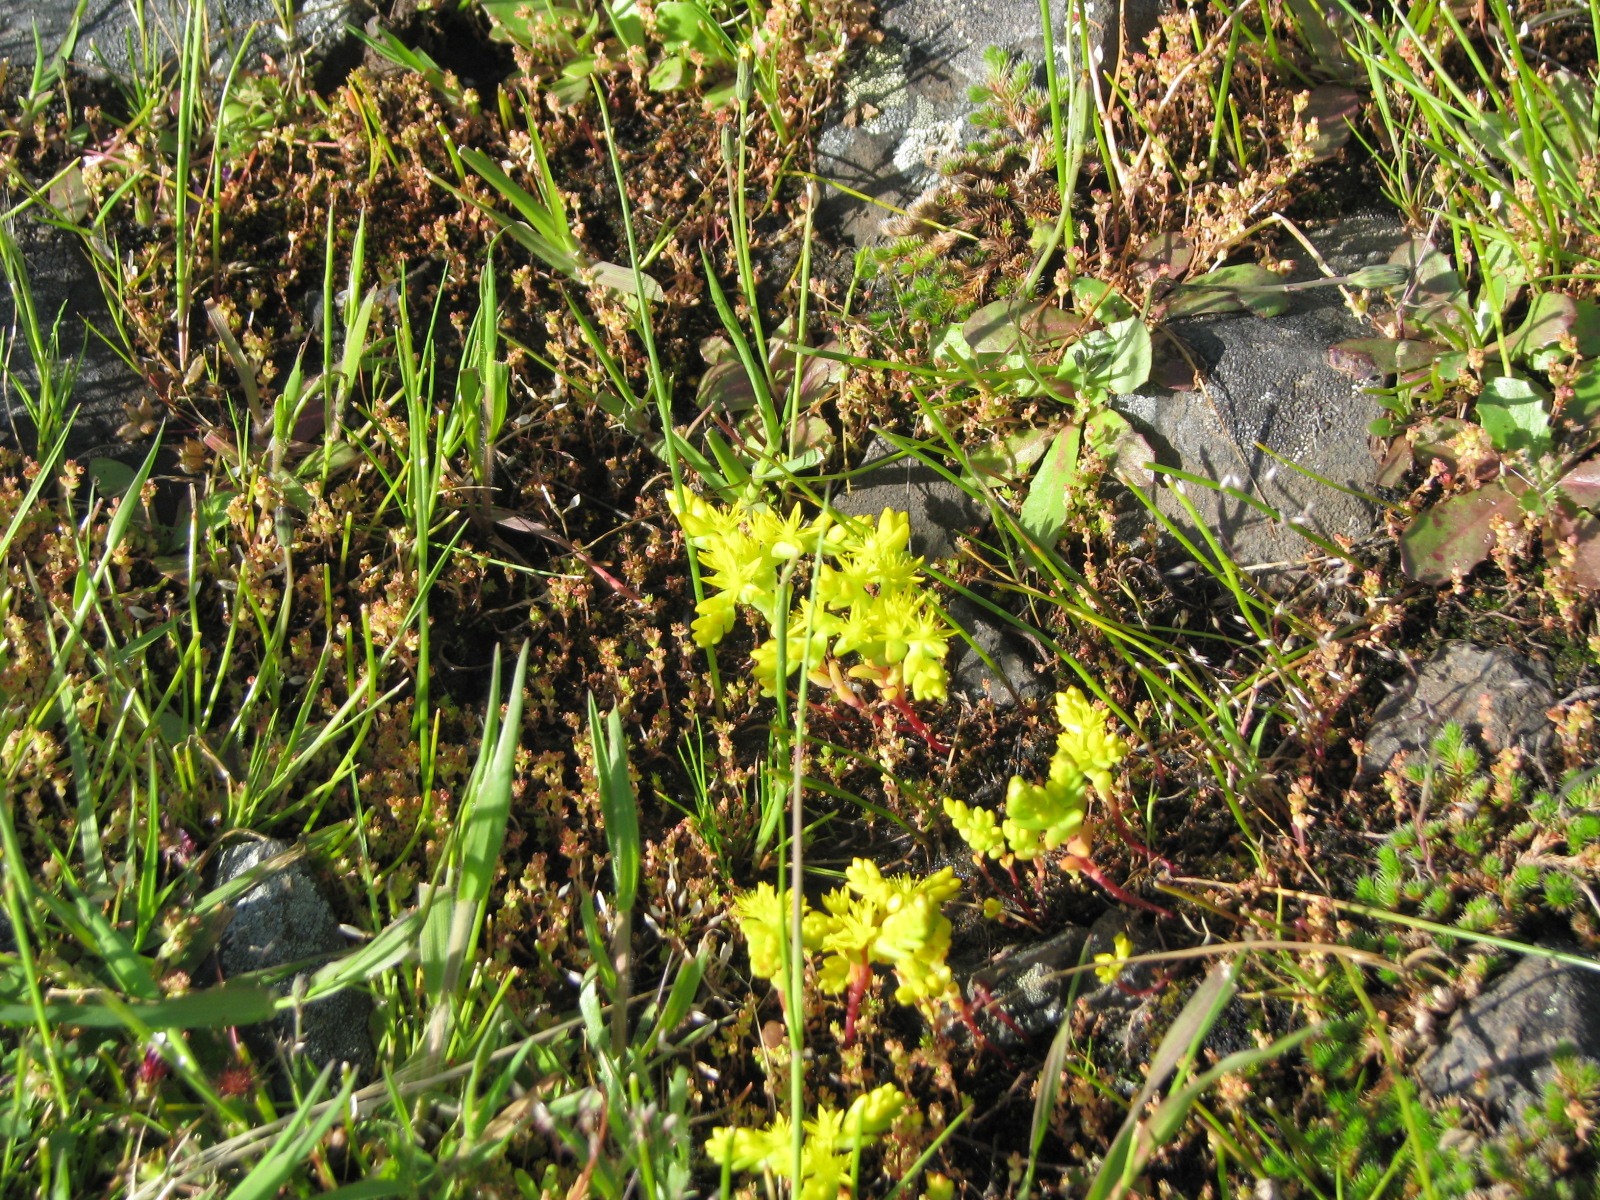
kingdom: Plantae
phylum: Tracheophyta
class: Magnoliopsida
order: Saxifragales
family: Crassulaceae
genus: Sedella
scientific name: Sedella pumila
